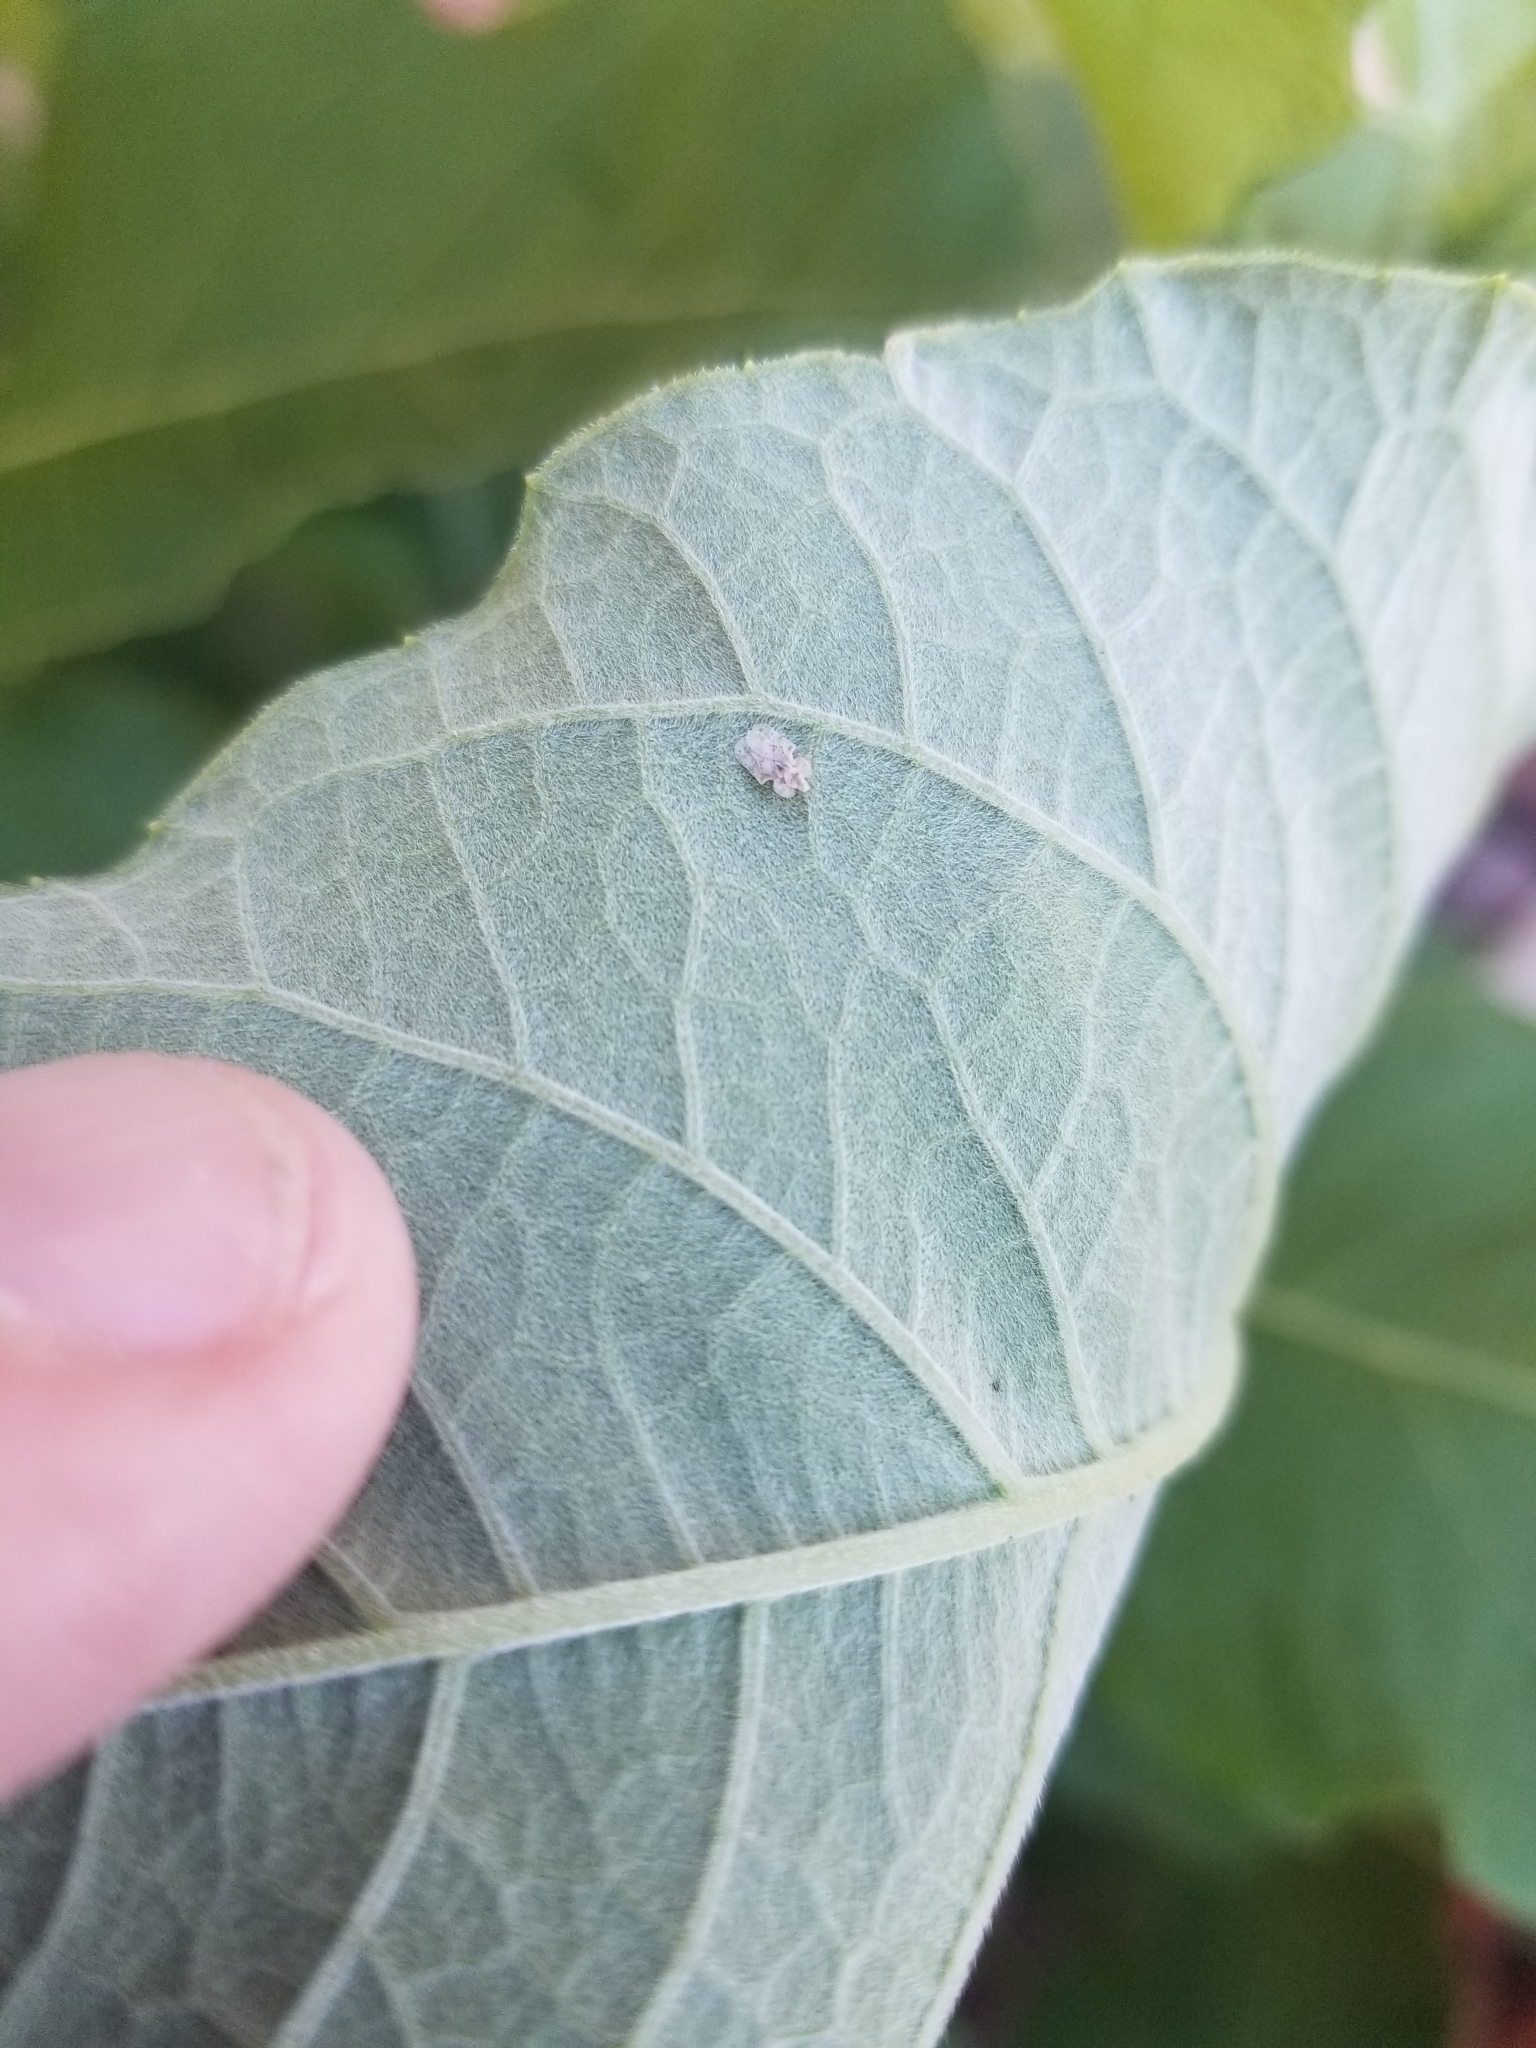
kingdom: Animalia
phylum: Arthropoda
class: Insecta
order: Hemiptera
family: Tingidae
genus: Corythucha
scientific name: Corythucha marmorata
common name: Chrysanthemum lace bug
